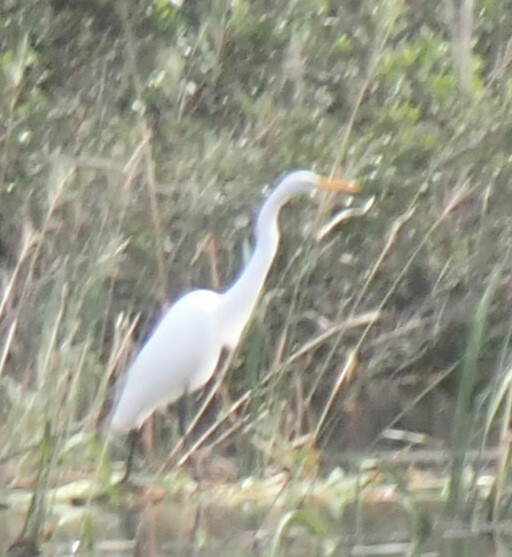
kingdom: Animalia
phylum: Chordata
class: Aves
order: Pelecaniformes
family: Ardeidae
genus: Ardea
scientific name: Ardea alba
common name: Great egret
